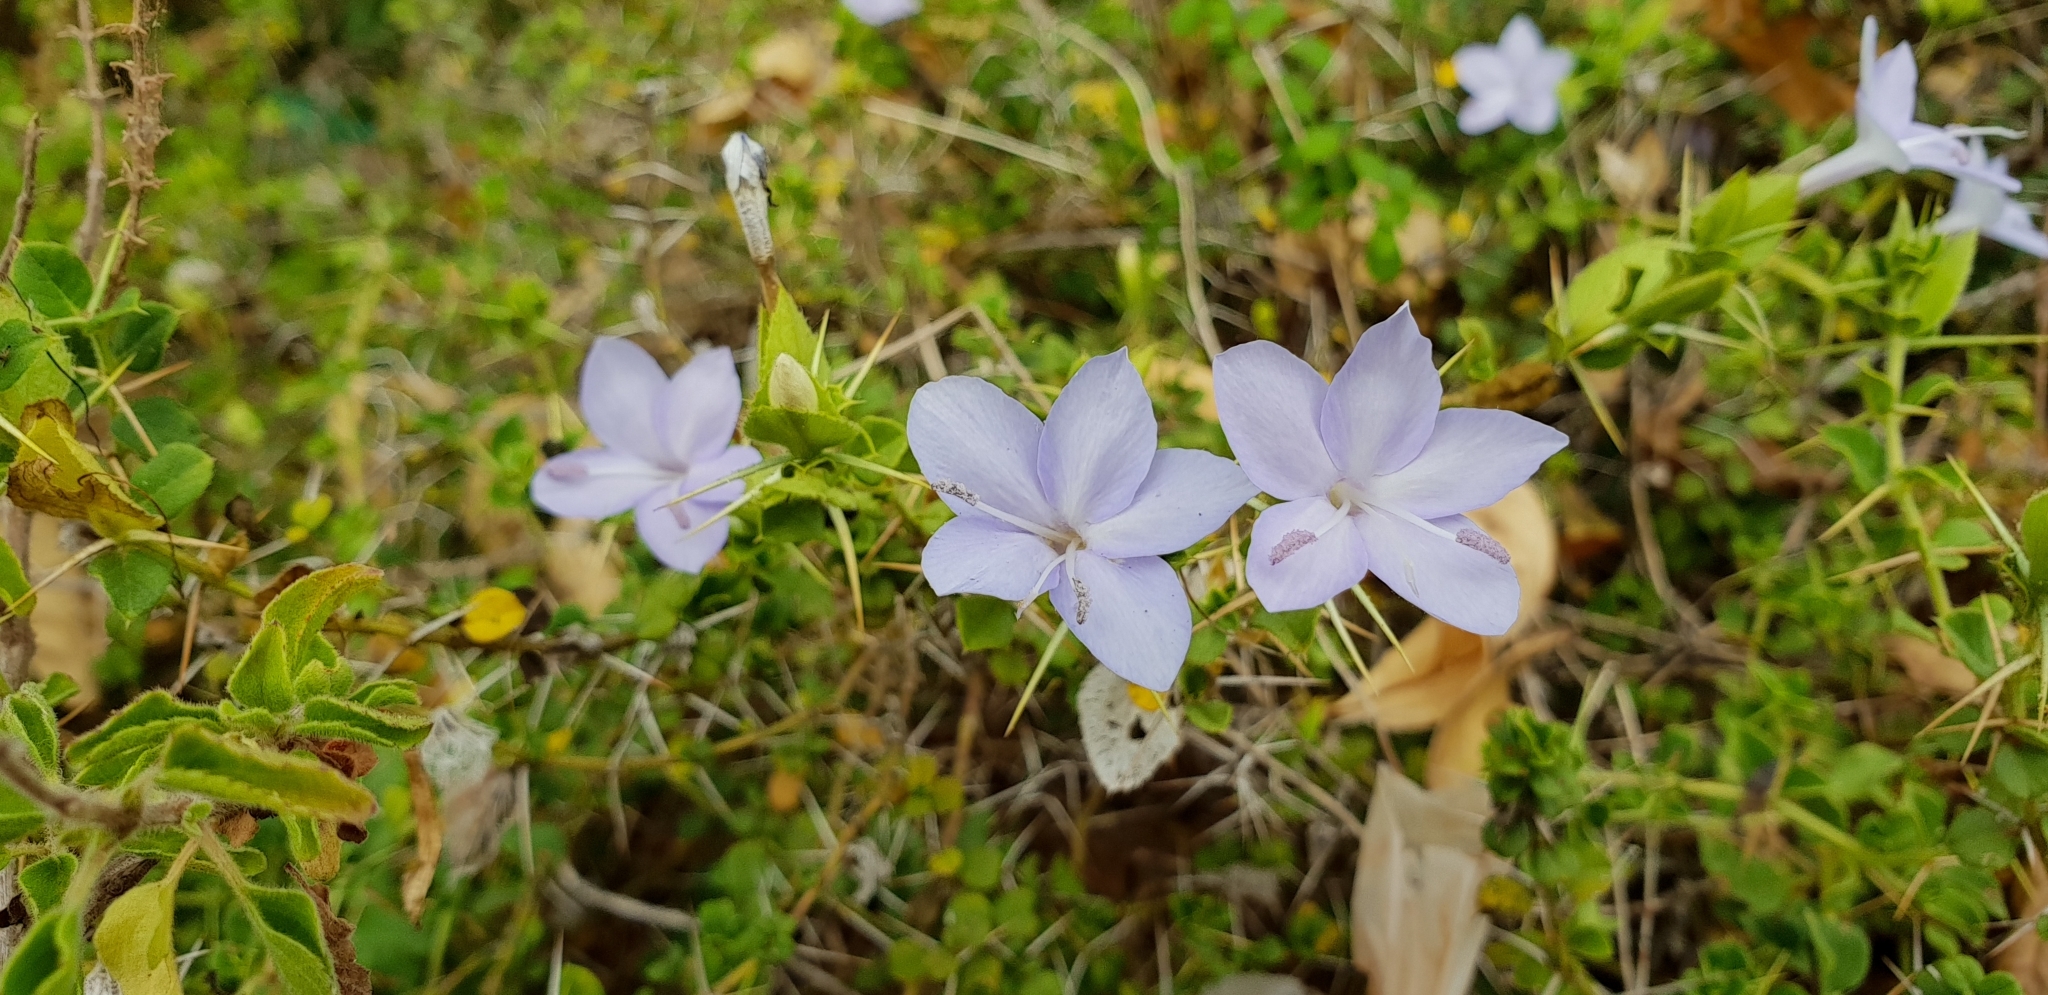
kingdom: Plantae
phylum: Tracheophyta
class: Magnoliopsida
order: Lamiales
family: Acanthaceae
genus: Barleria
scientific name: Barleria buxifolia
